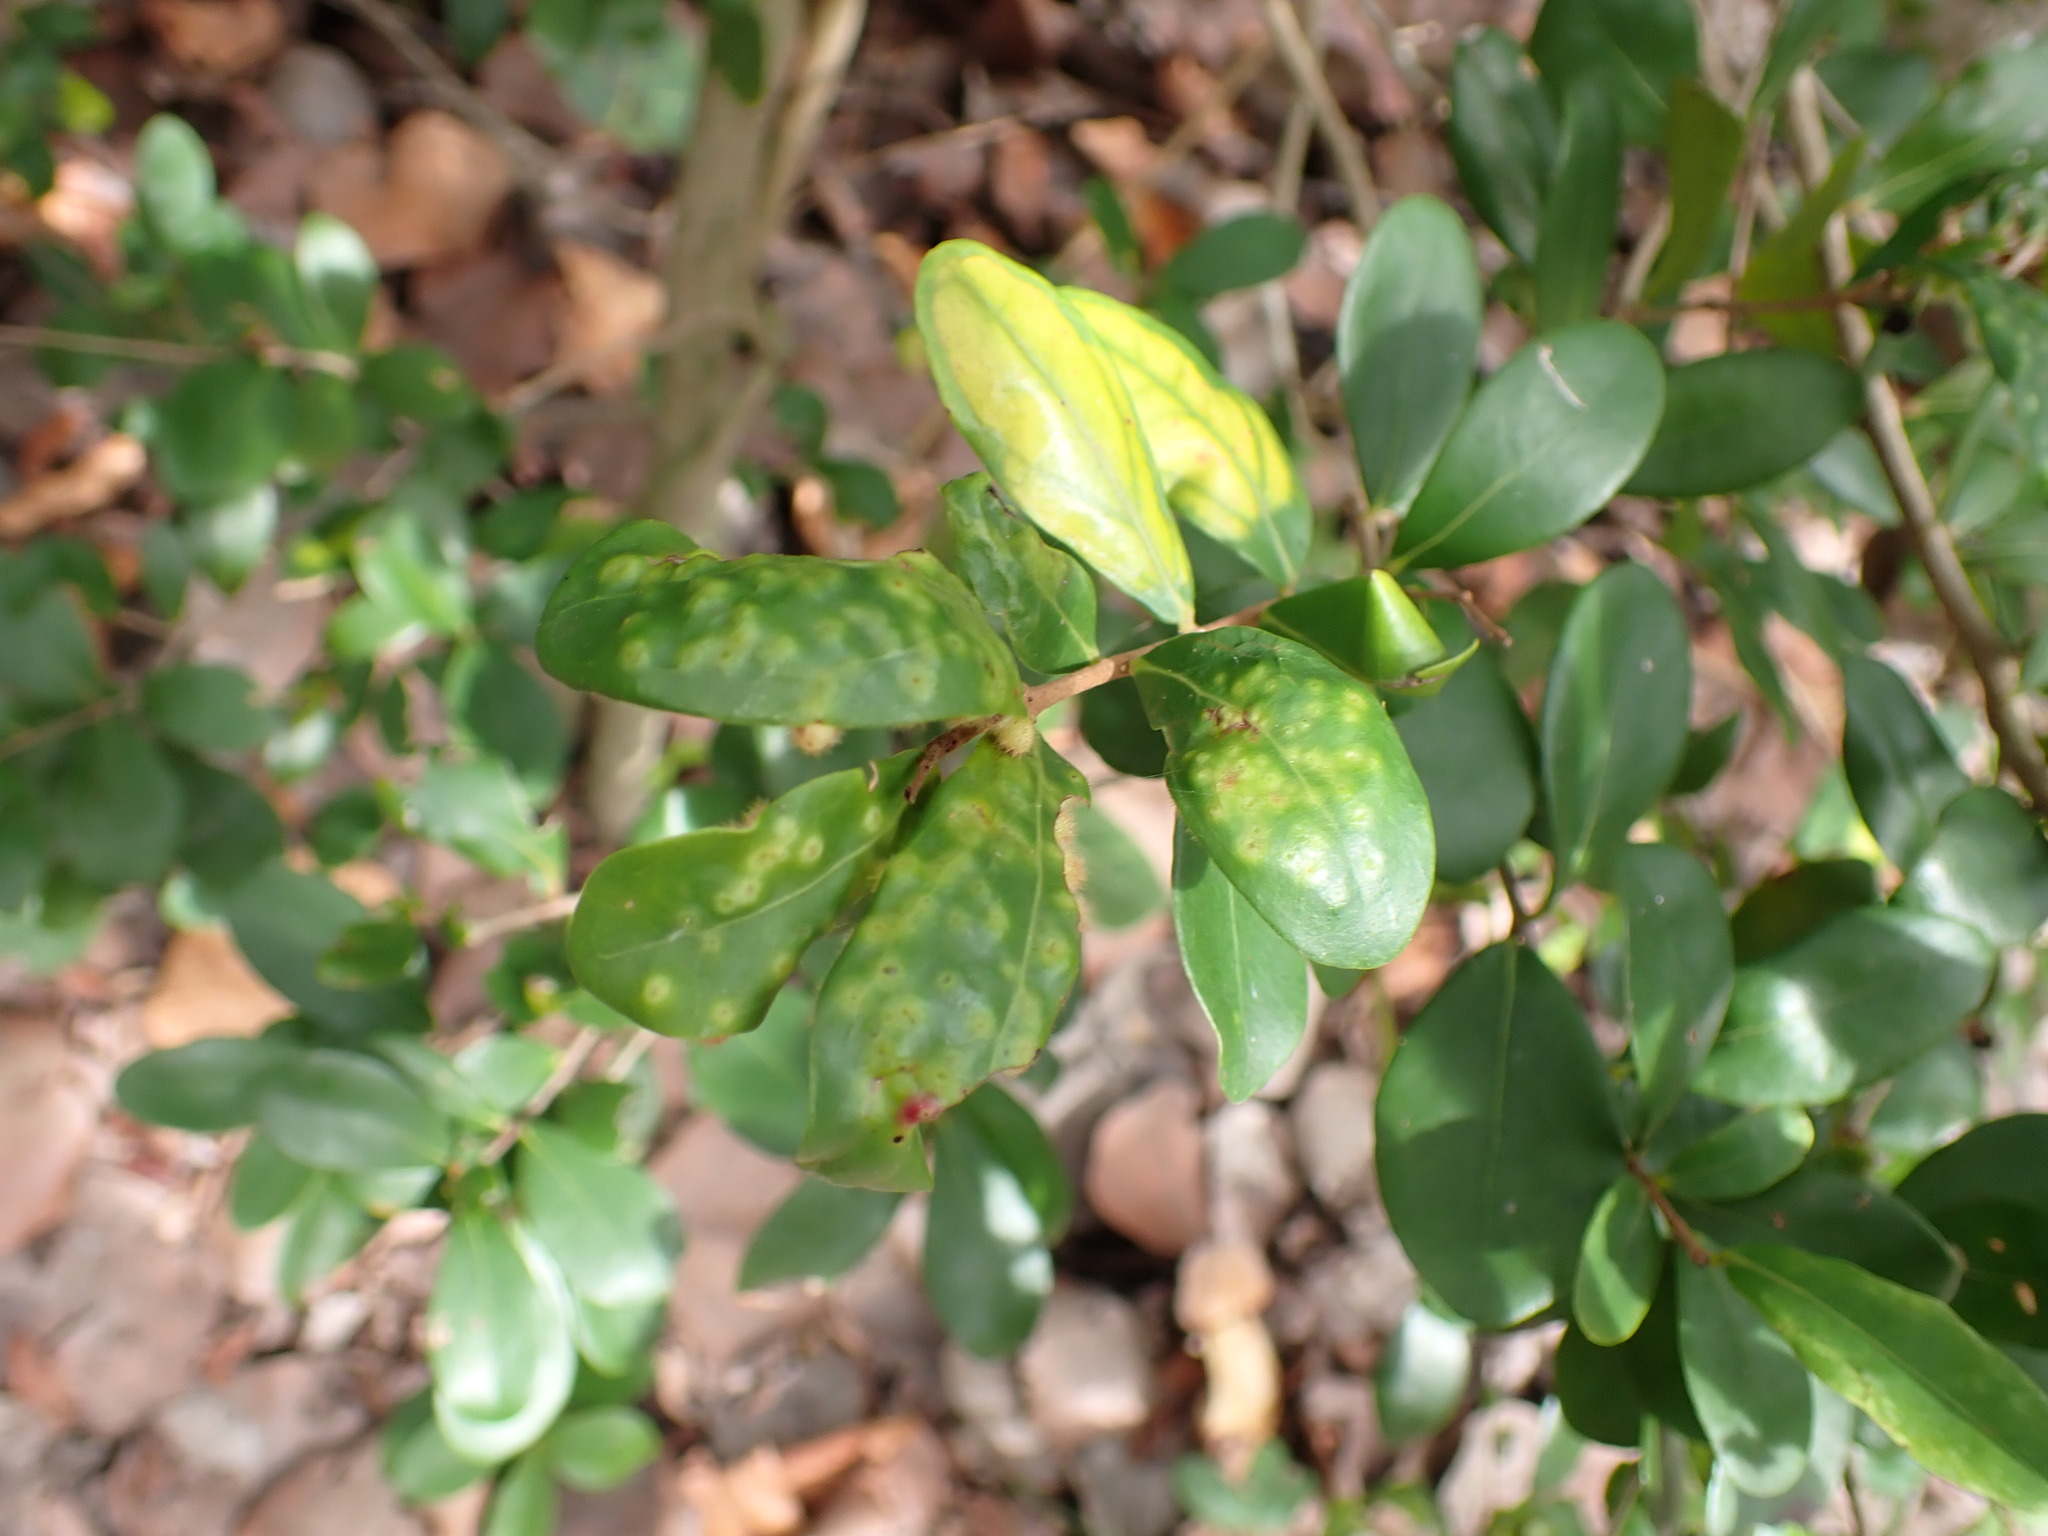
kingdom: Plantae
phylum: Tracheophyta
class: Magnoliopsida
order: Myrtales
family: Myrtaceae
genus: Eugenia
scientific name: Eugenia foetida
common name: White wattling
